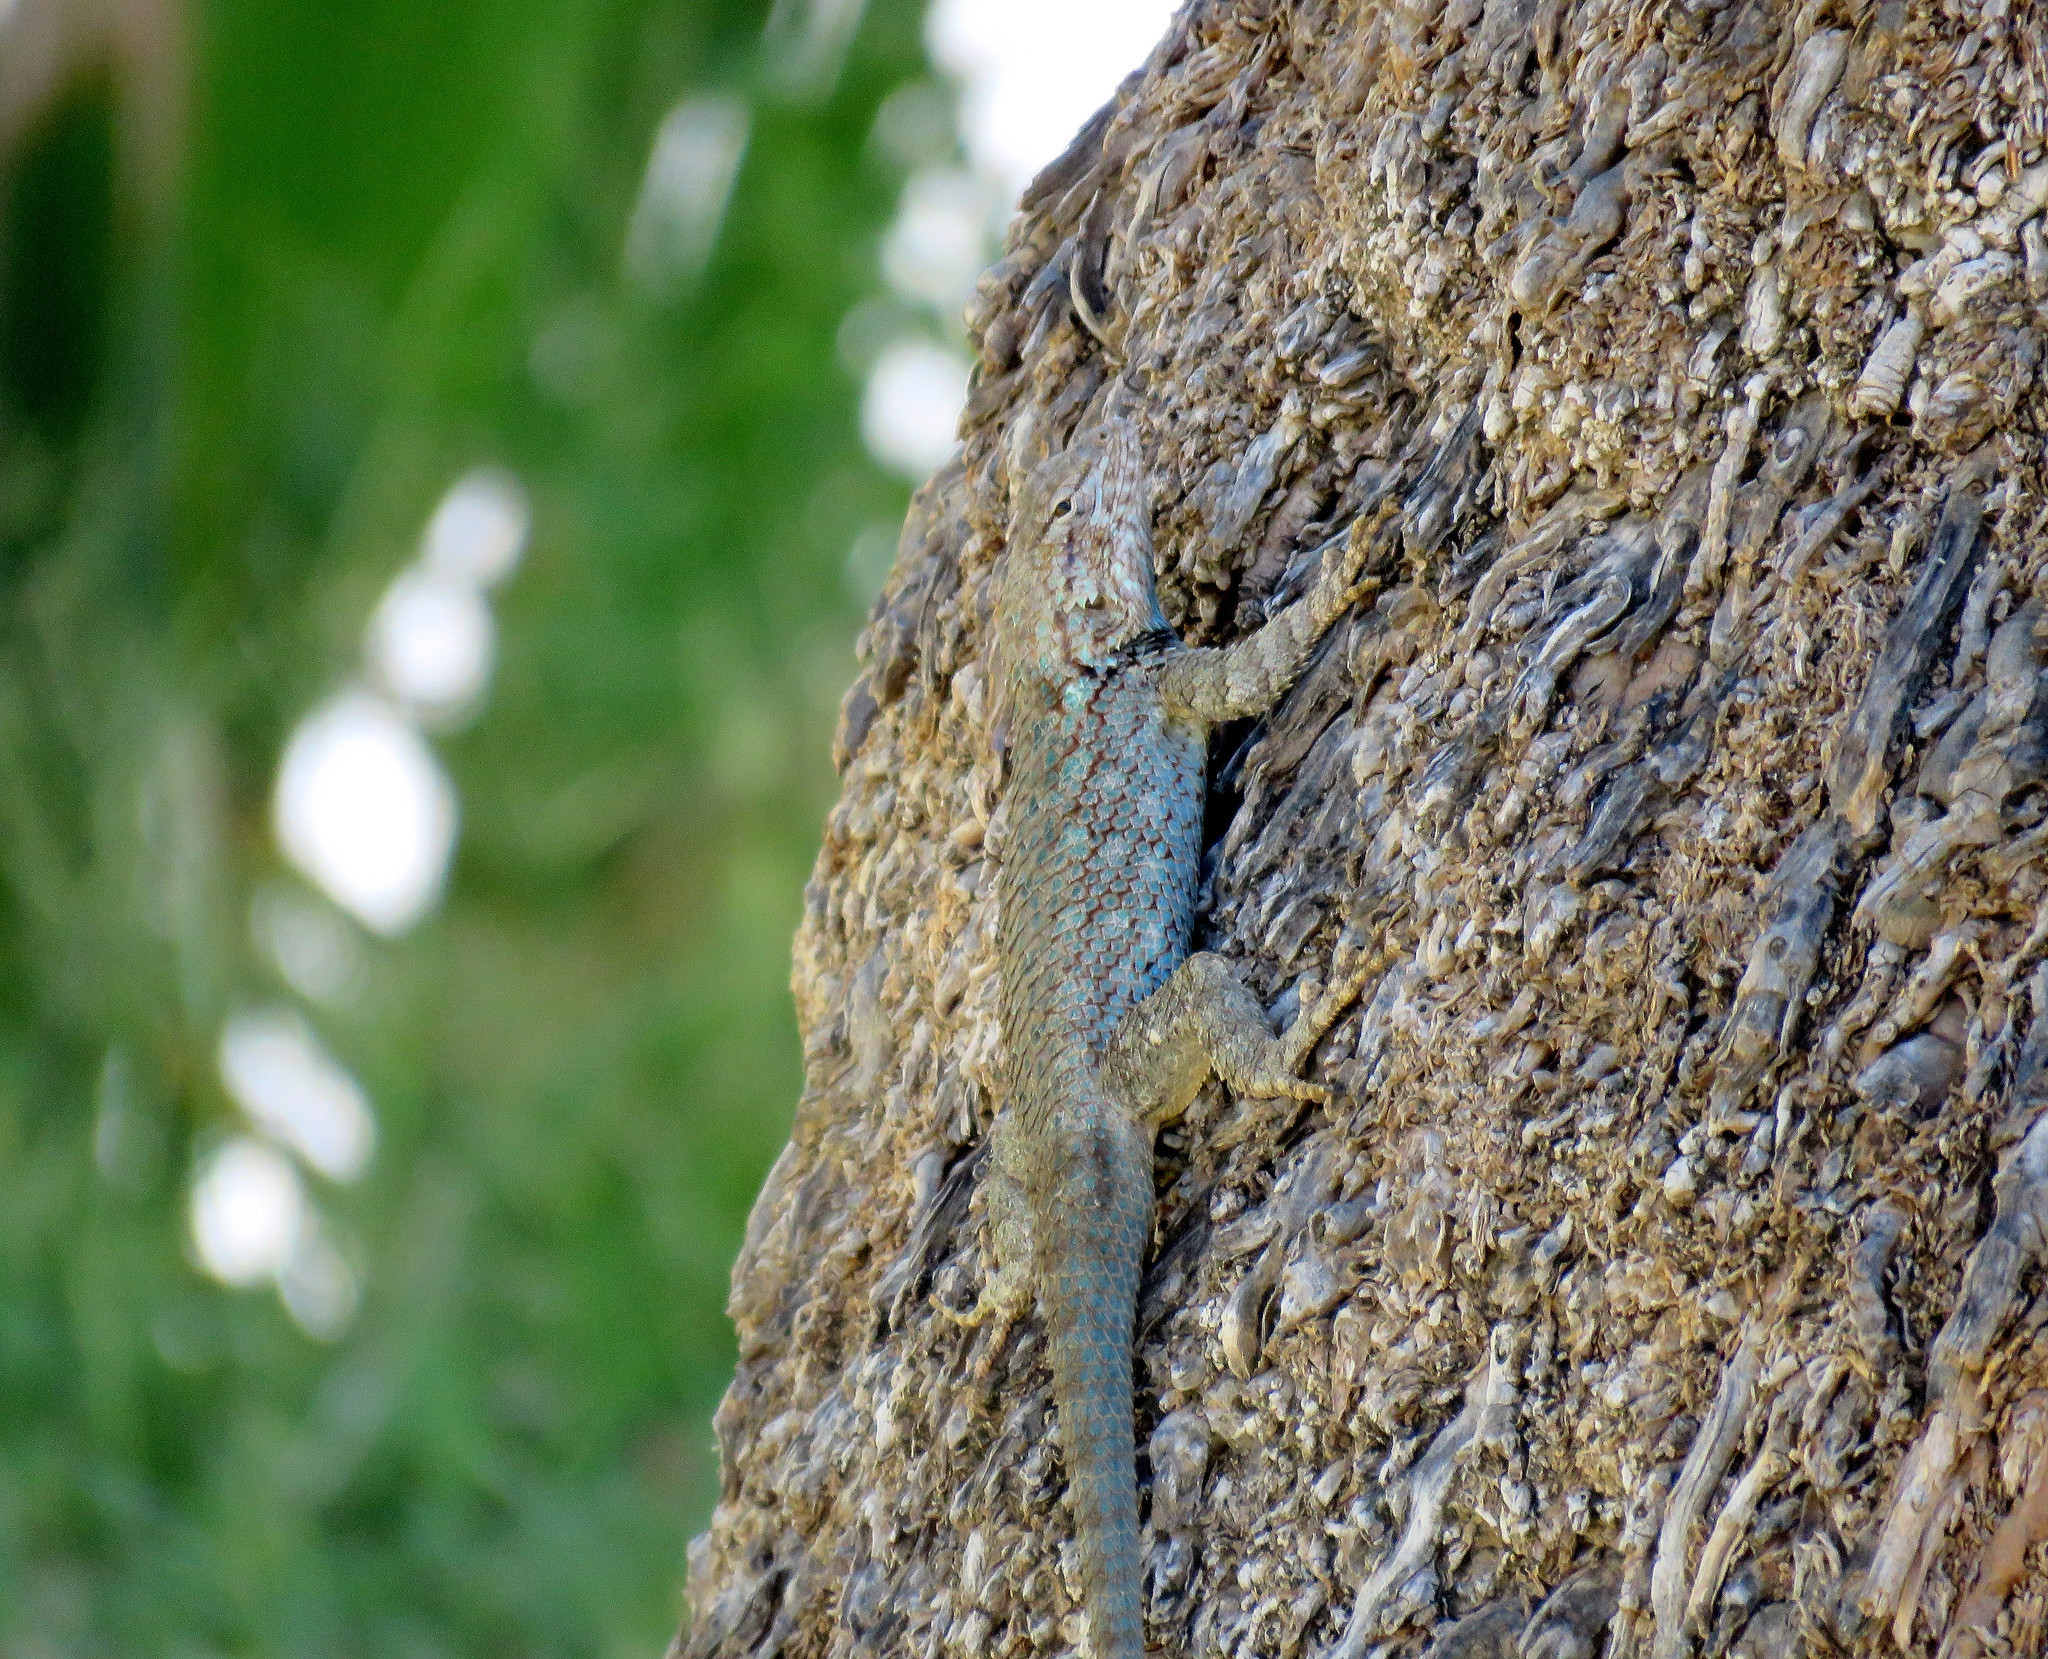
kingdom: Animalia
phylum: Chordata
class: Squamata
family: Phrynosomatidae
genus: Sceloporus
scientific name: Sceloporus clarkii
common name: Clark's spiny lizard
